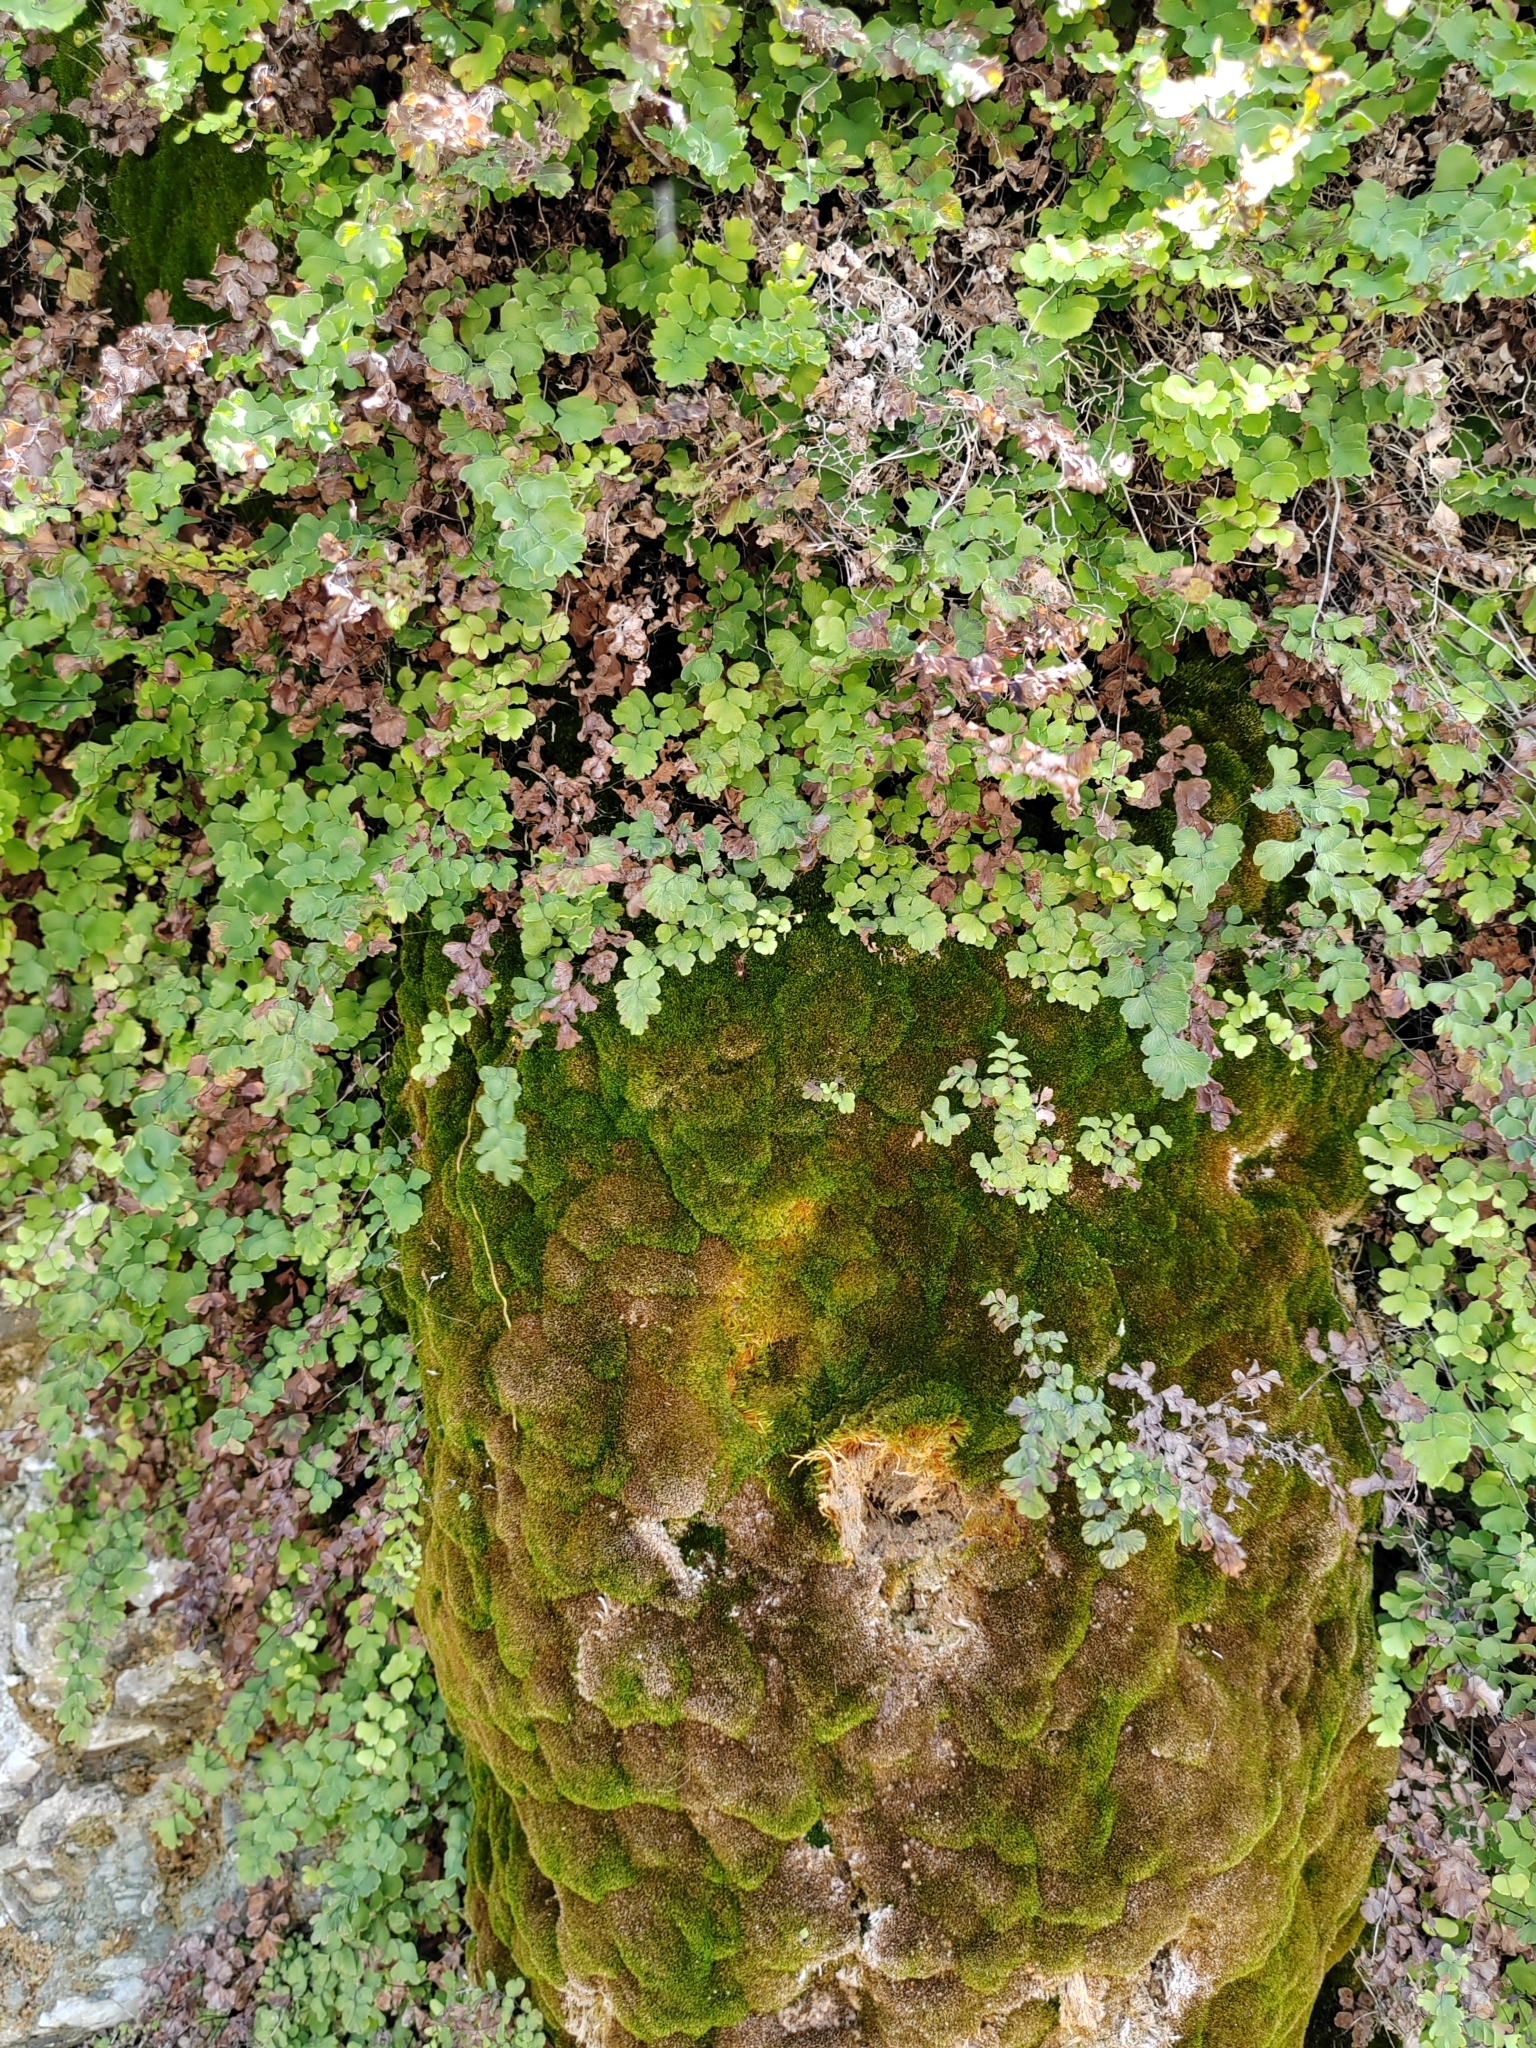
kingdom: Plantae
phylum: Tracheophyta
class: Polypodiopsida
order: Polypodiales
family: Pteridaceae
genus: Adiantum
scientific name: Adiantum capillus-veneris
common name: Maidenhair fern
